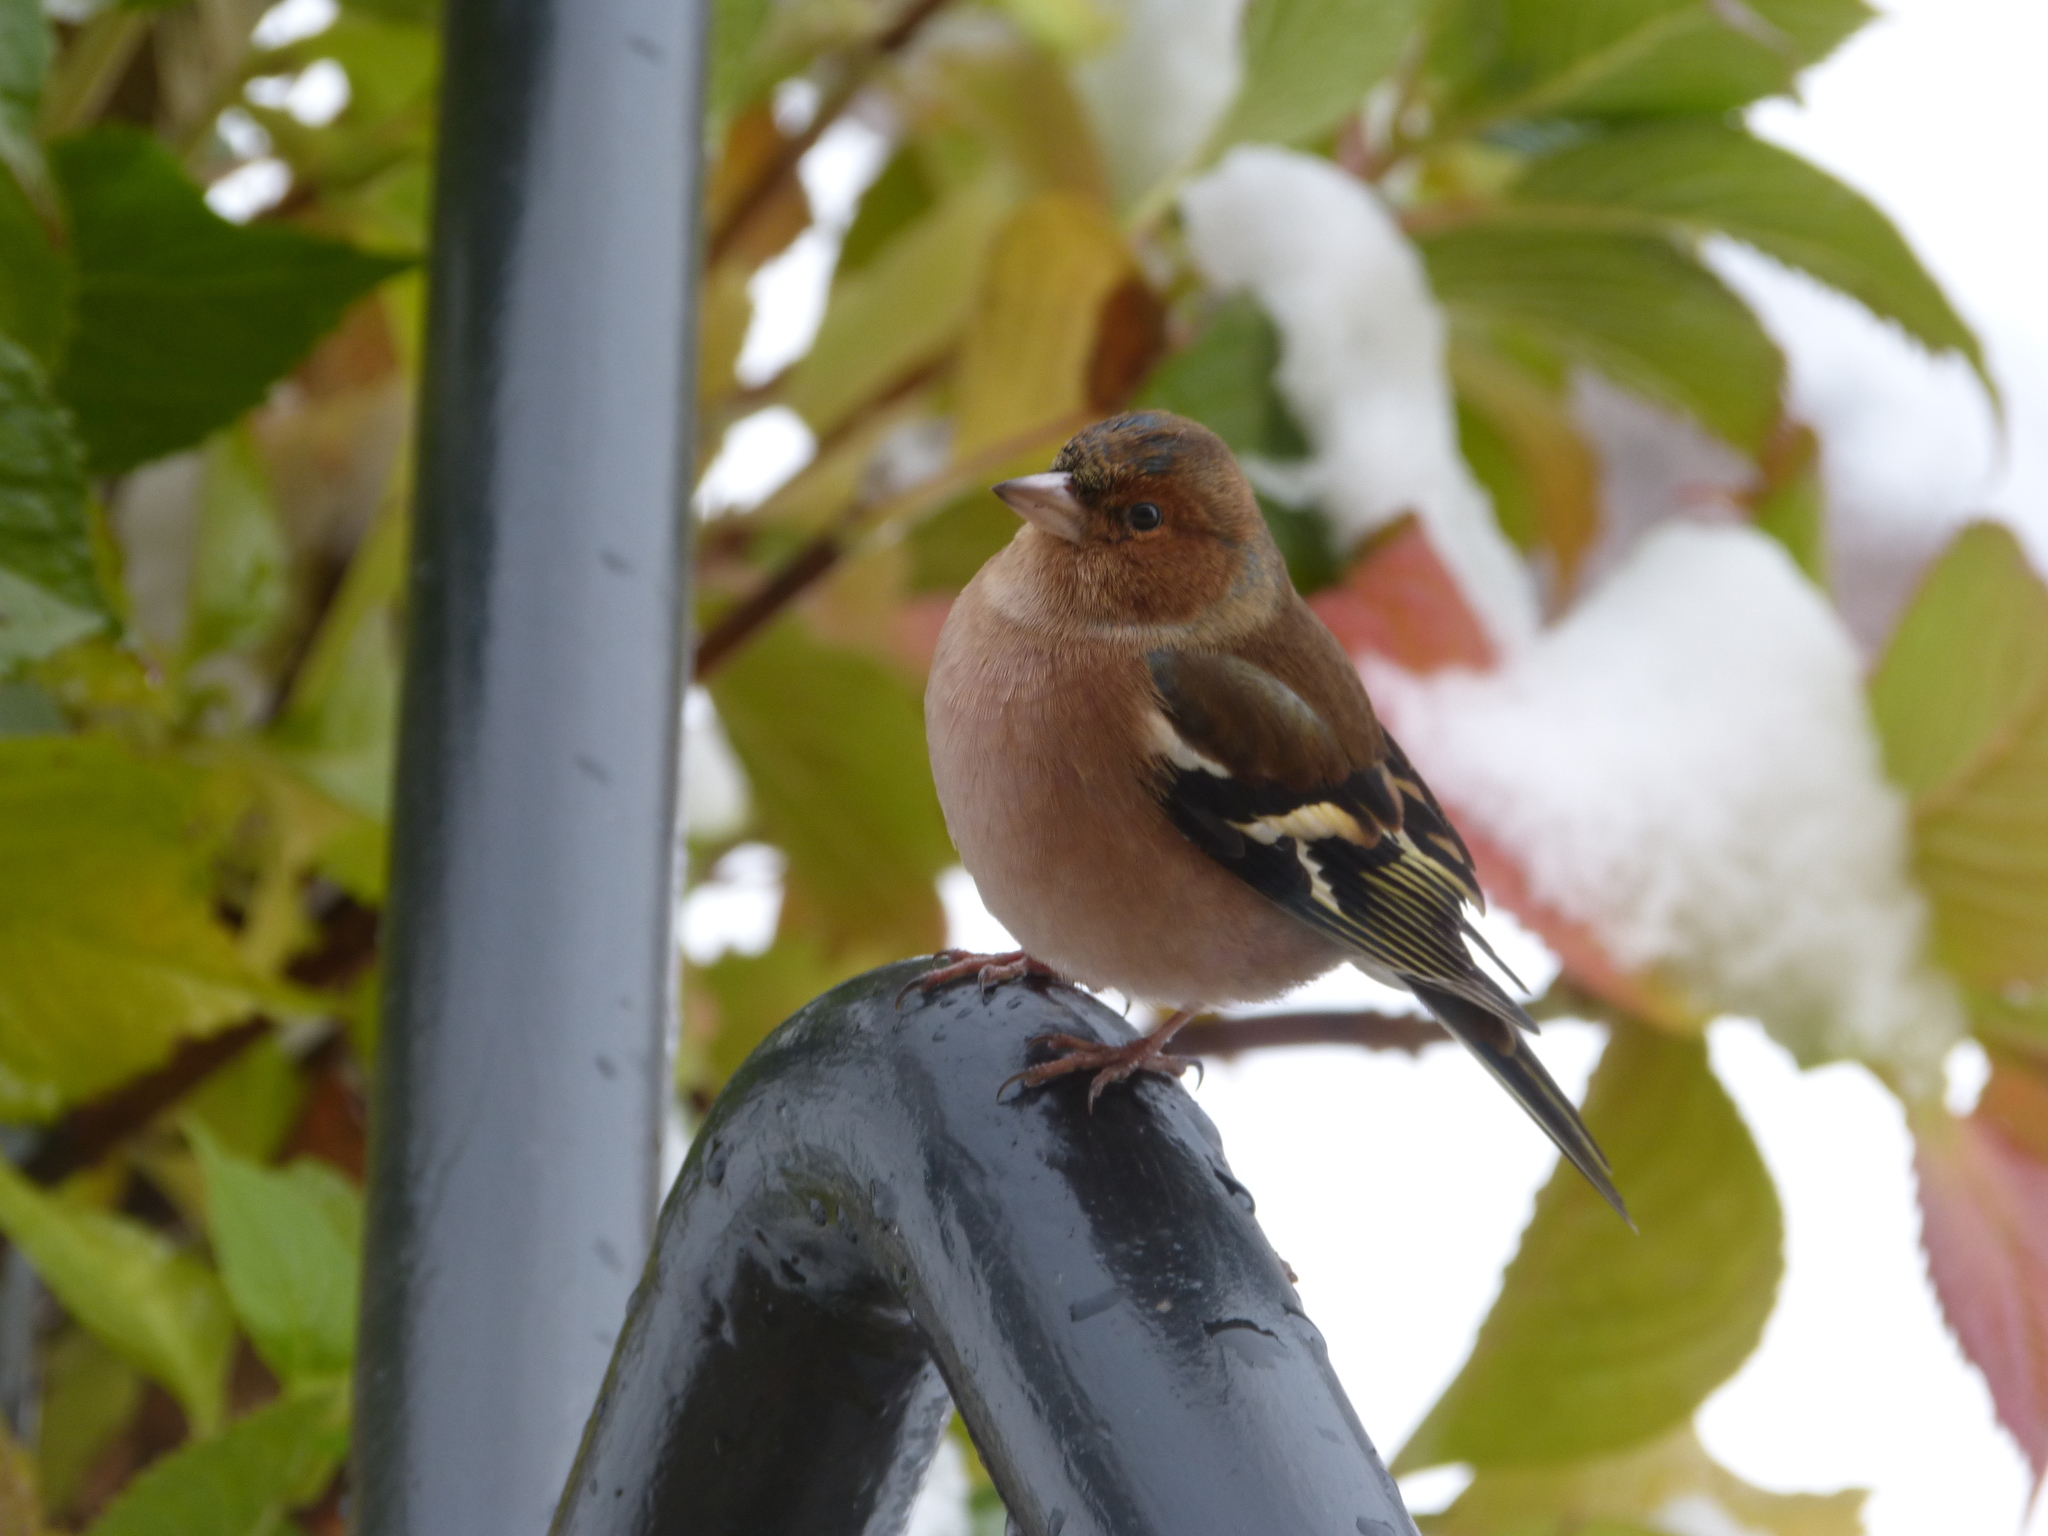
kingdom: Animalia
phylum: Chordata
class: Aves
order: Passeriformes
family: Fringillidae
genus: Fringilla
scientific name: Fringilla coelebs
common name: Common chaffinch
